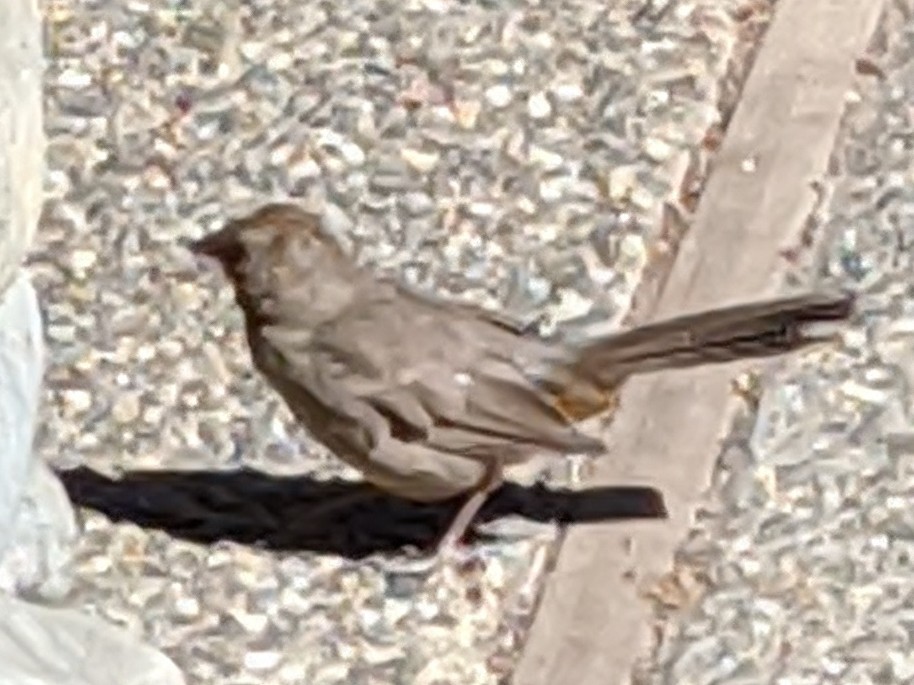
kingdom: Animalia
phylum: Chordata
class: Aves
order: Passeriformes
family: Passerellidae
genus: Melozone
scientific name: Melozone crissalis
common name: California towhee
